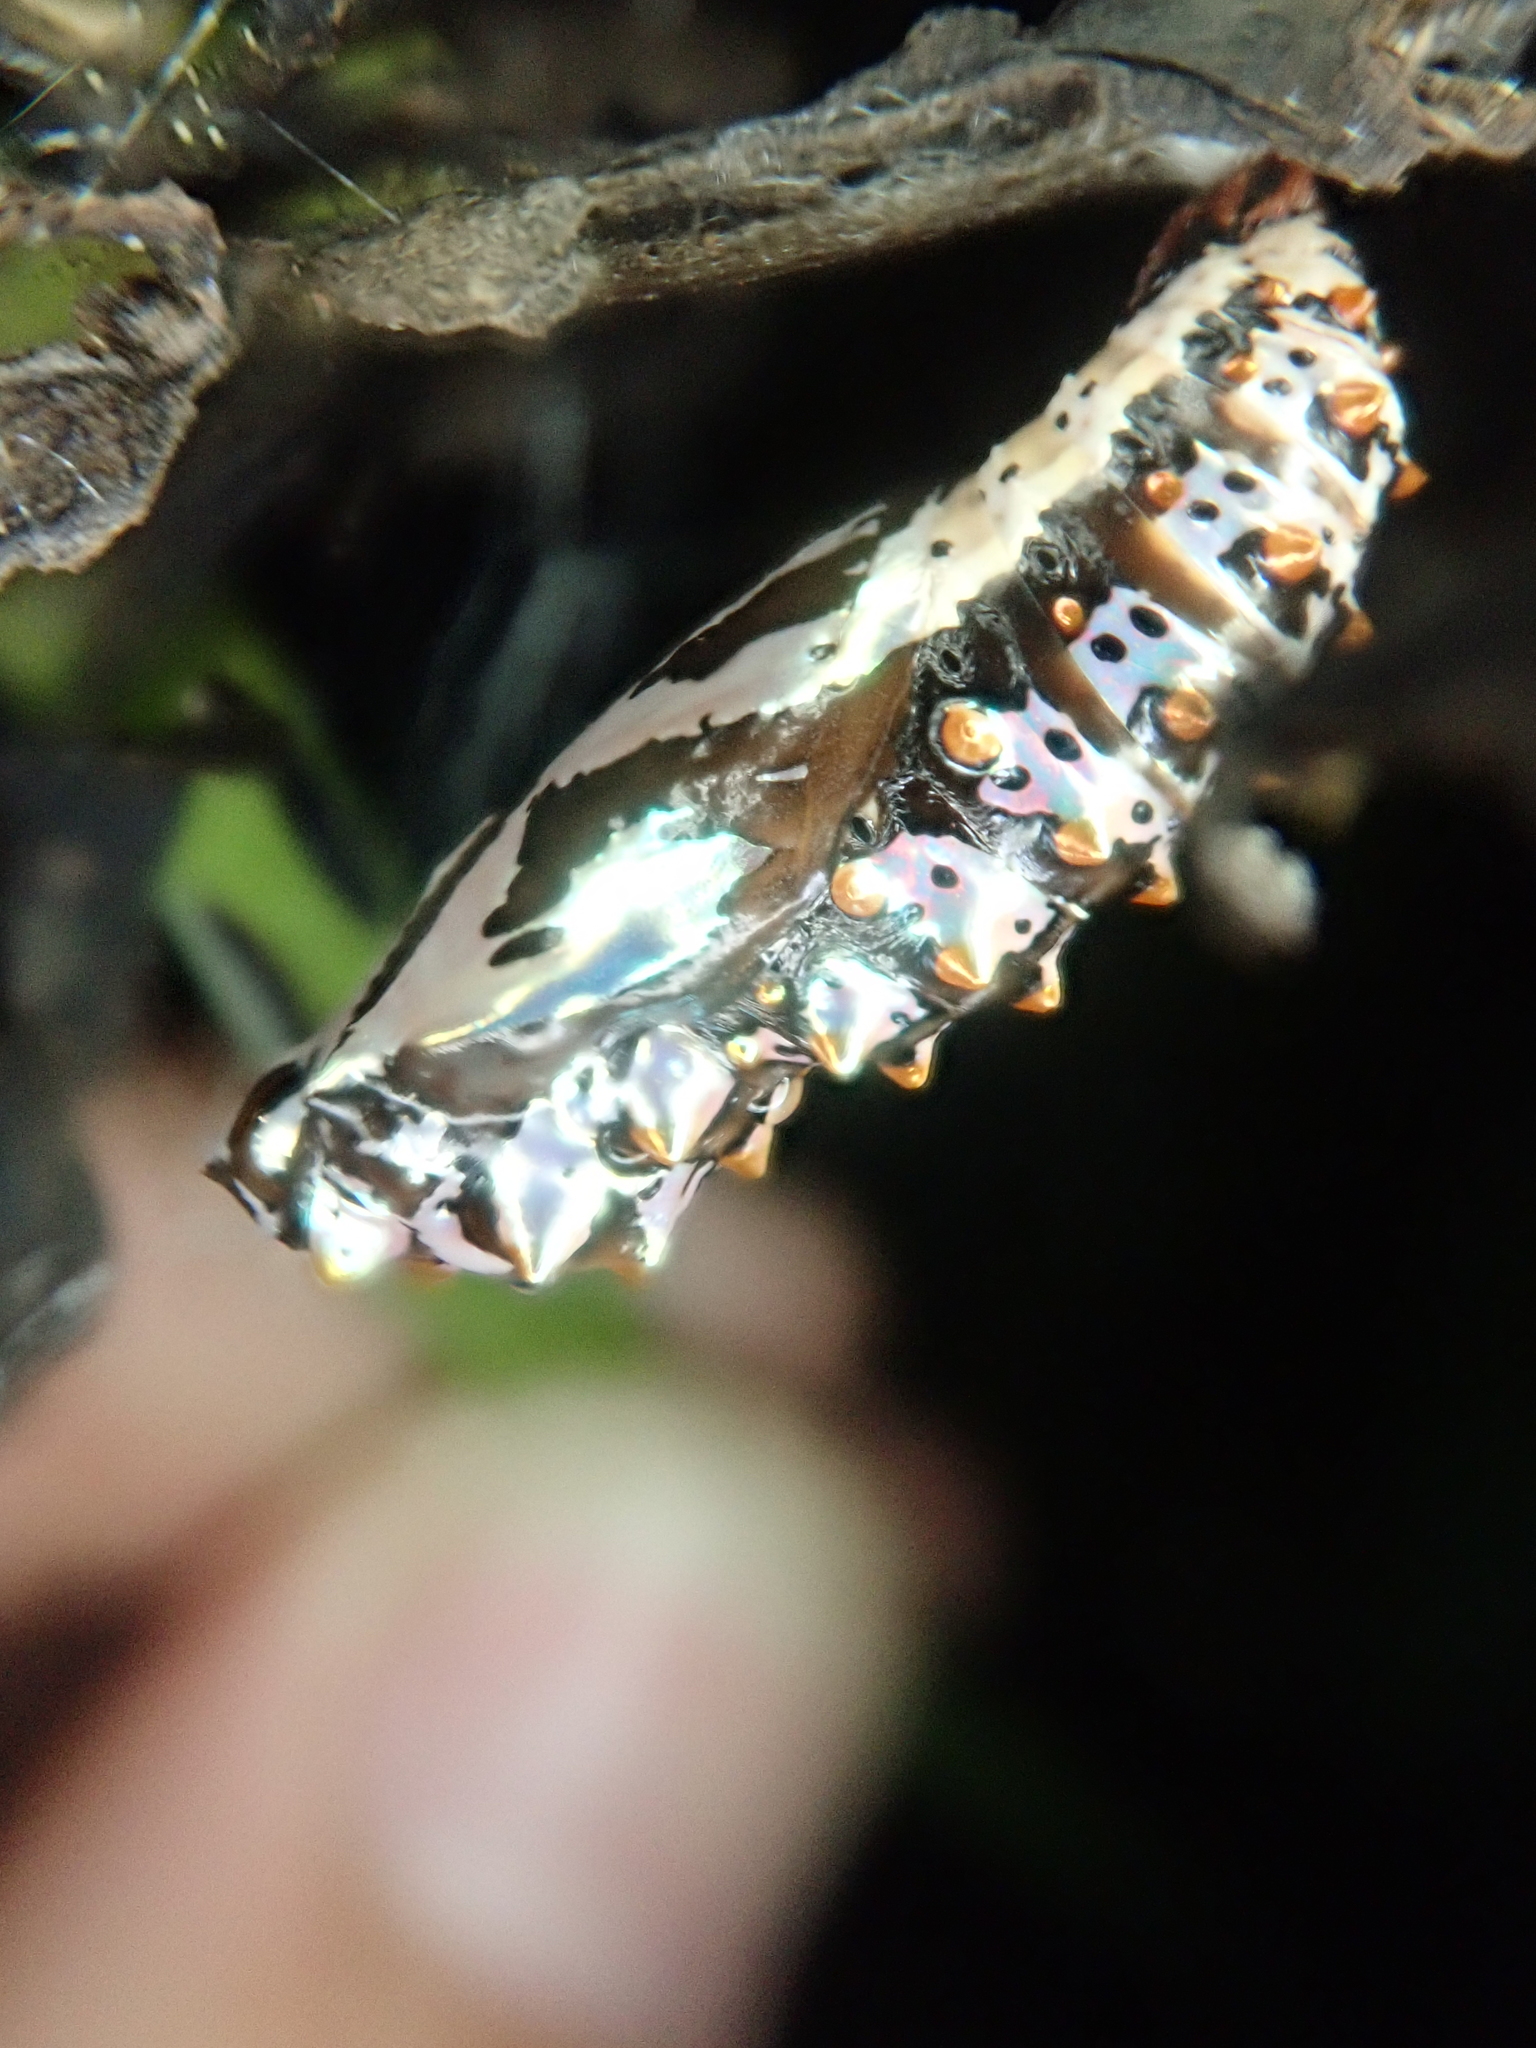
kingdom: Animalia
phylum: Arthropoda
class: Insecta
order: Lepidoptera
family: Nymphalidae
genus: Euptoieta
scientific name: Euptoieta hegesia
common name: Mexican fritillary
